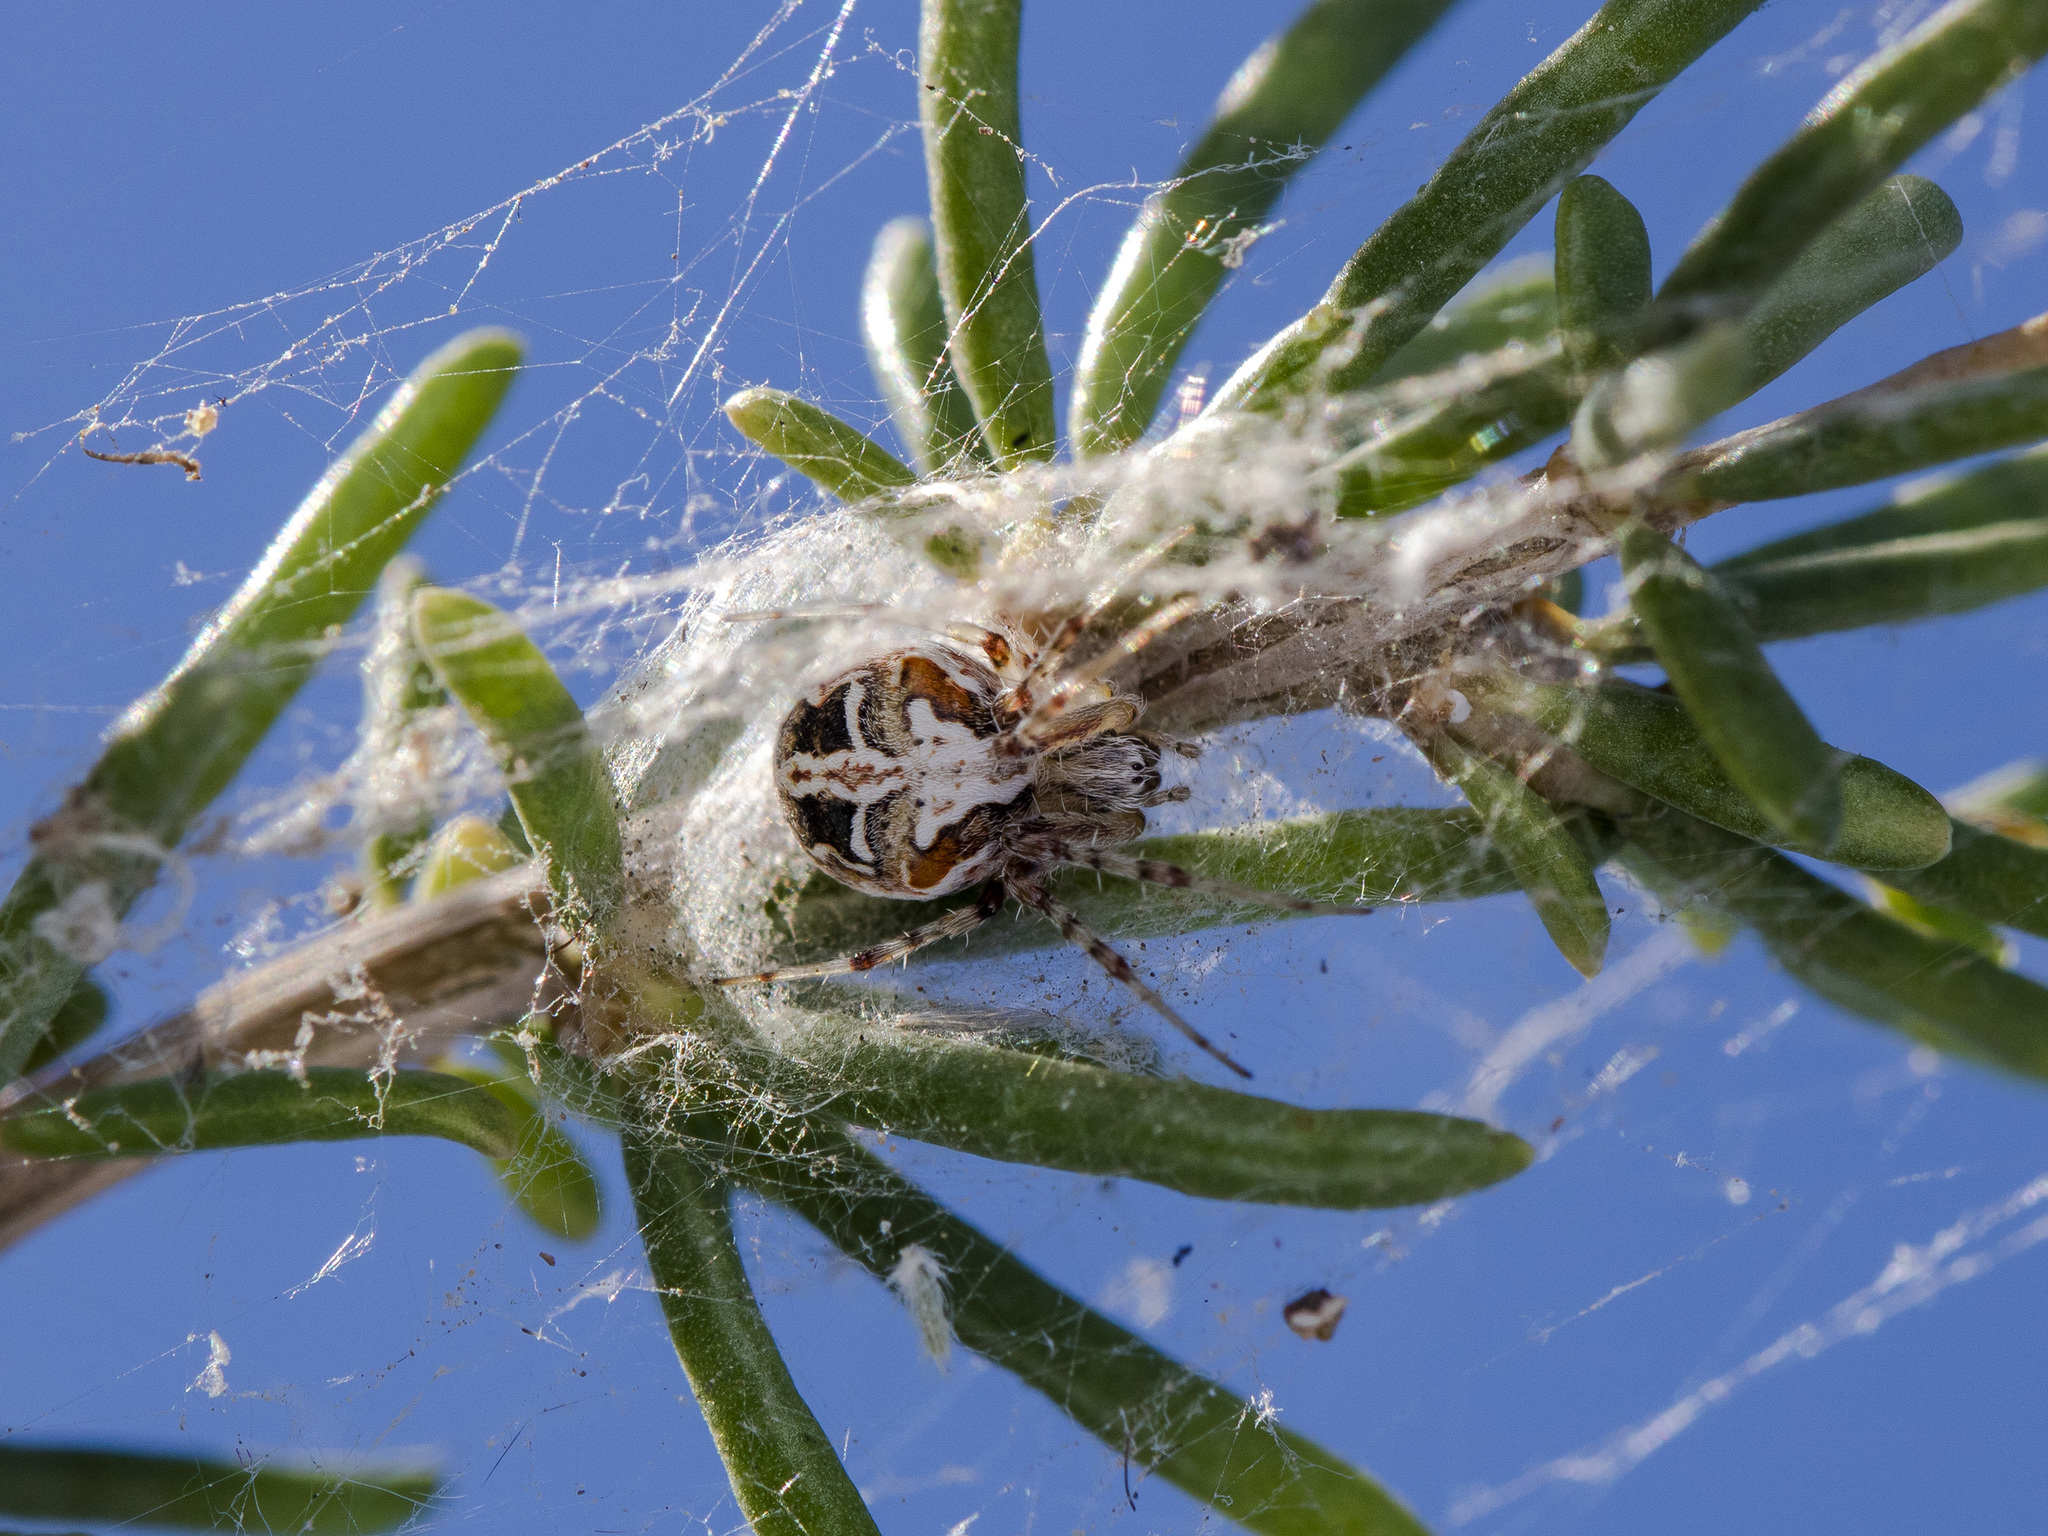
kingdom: Animalia
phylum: Arthropoda
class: Arachnida
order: Araneae
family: Araneidae
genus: Araneus
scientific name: Araneus pallasi
